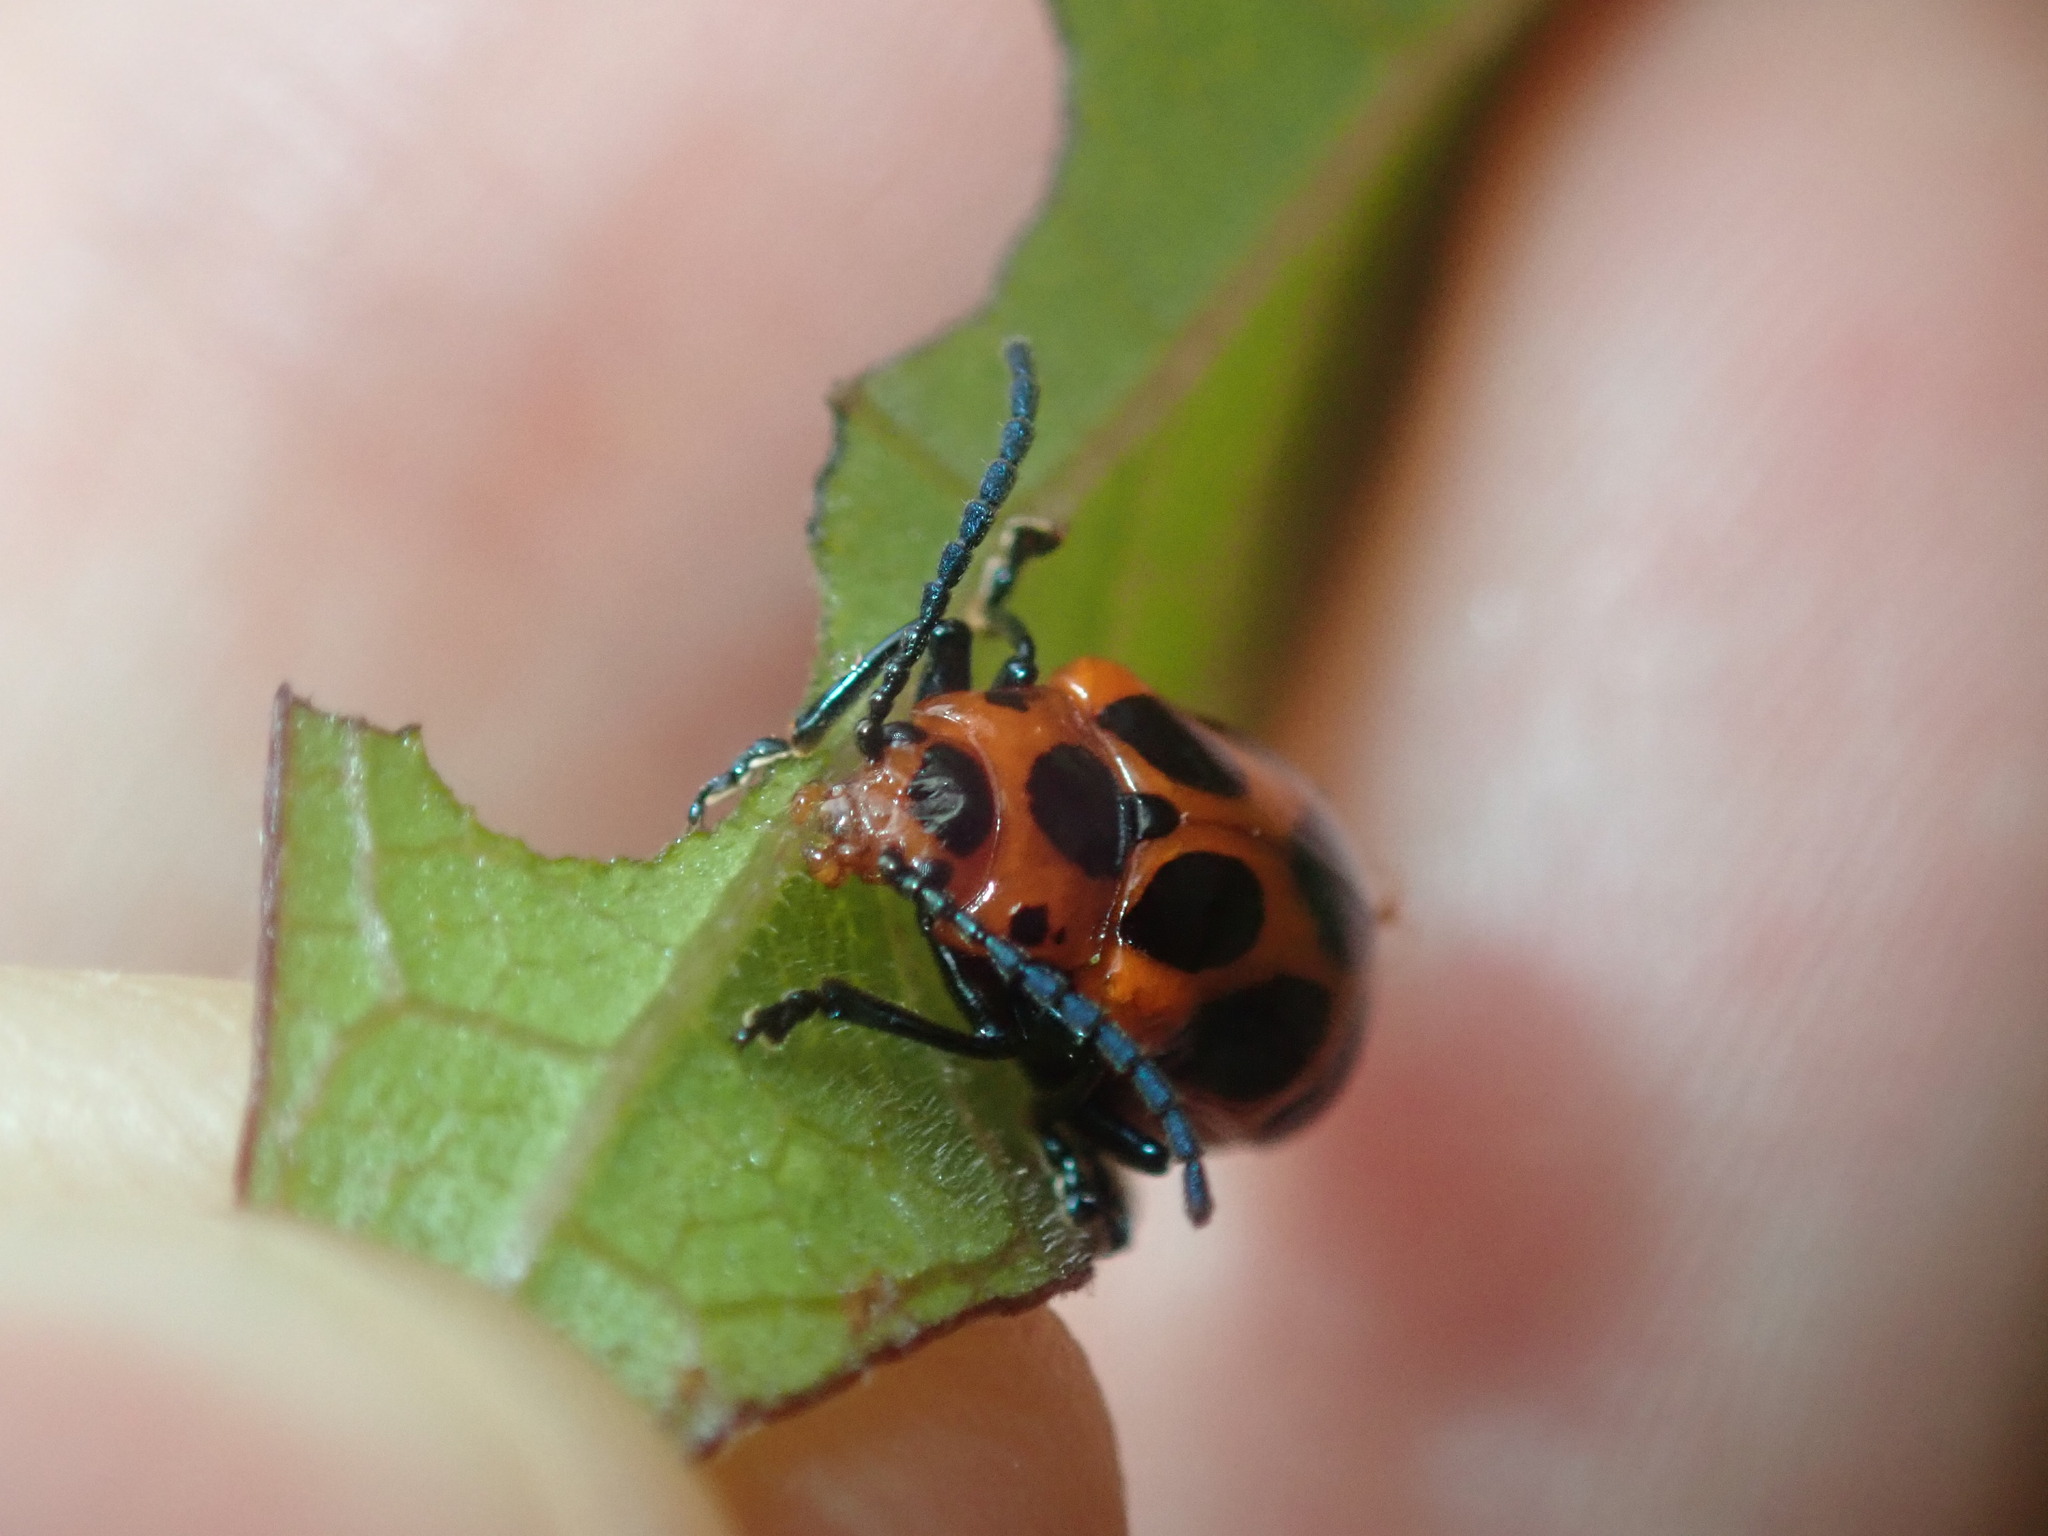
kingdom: Animalia
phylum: Arthropoda
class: Insecta
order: Coleoptera
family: Chrysomelidae
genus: Phyllocharis
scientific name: Phyllocharis
